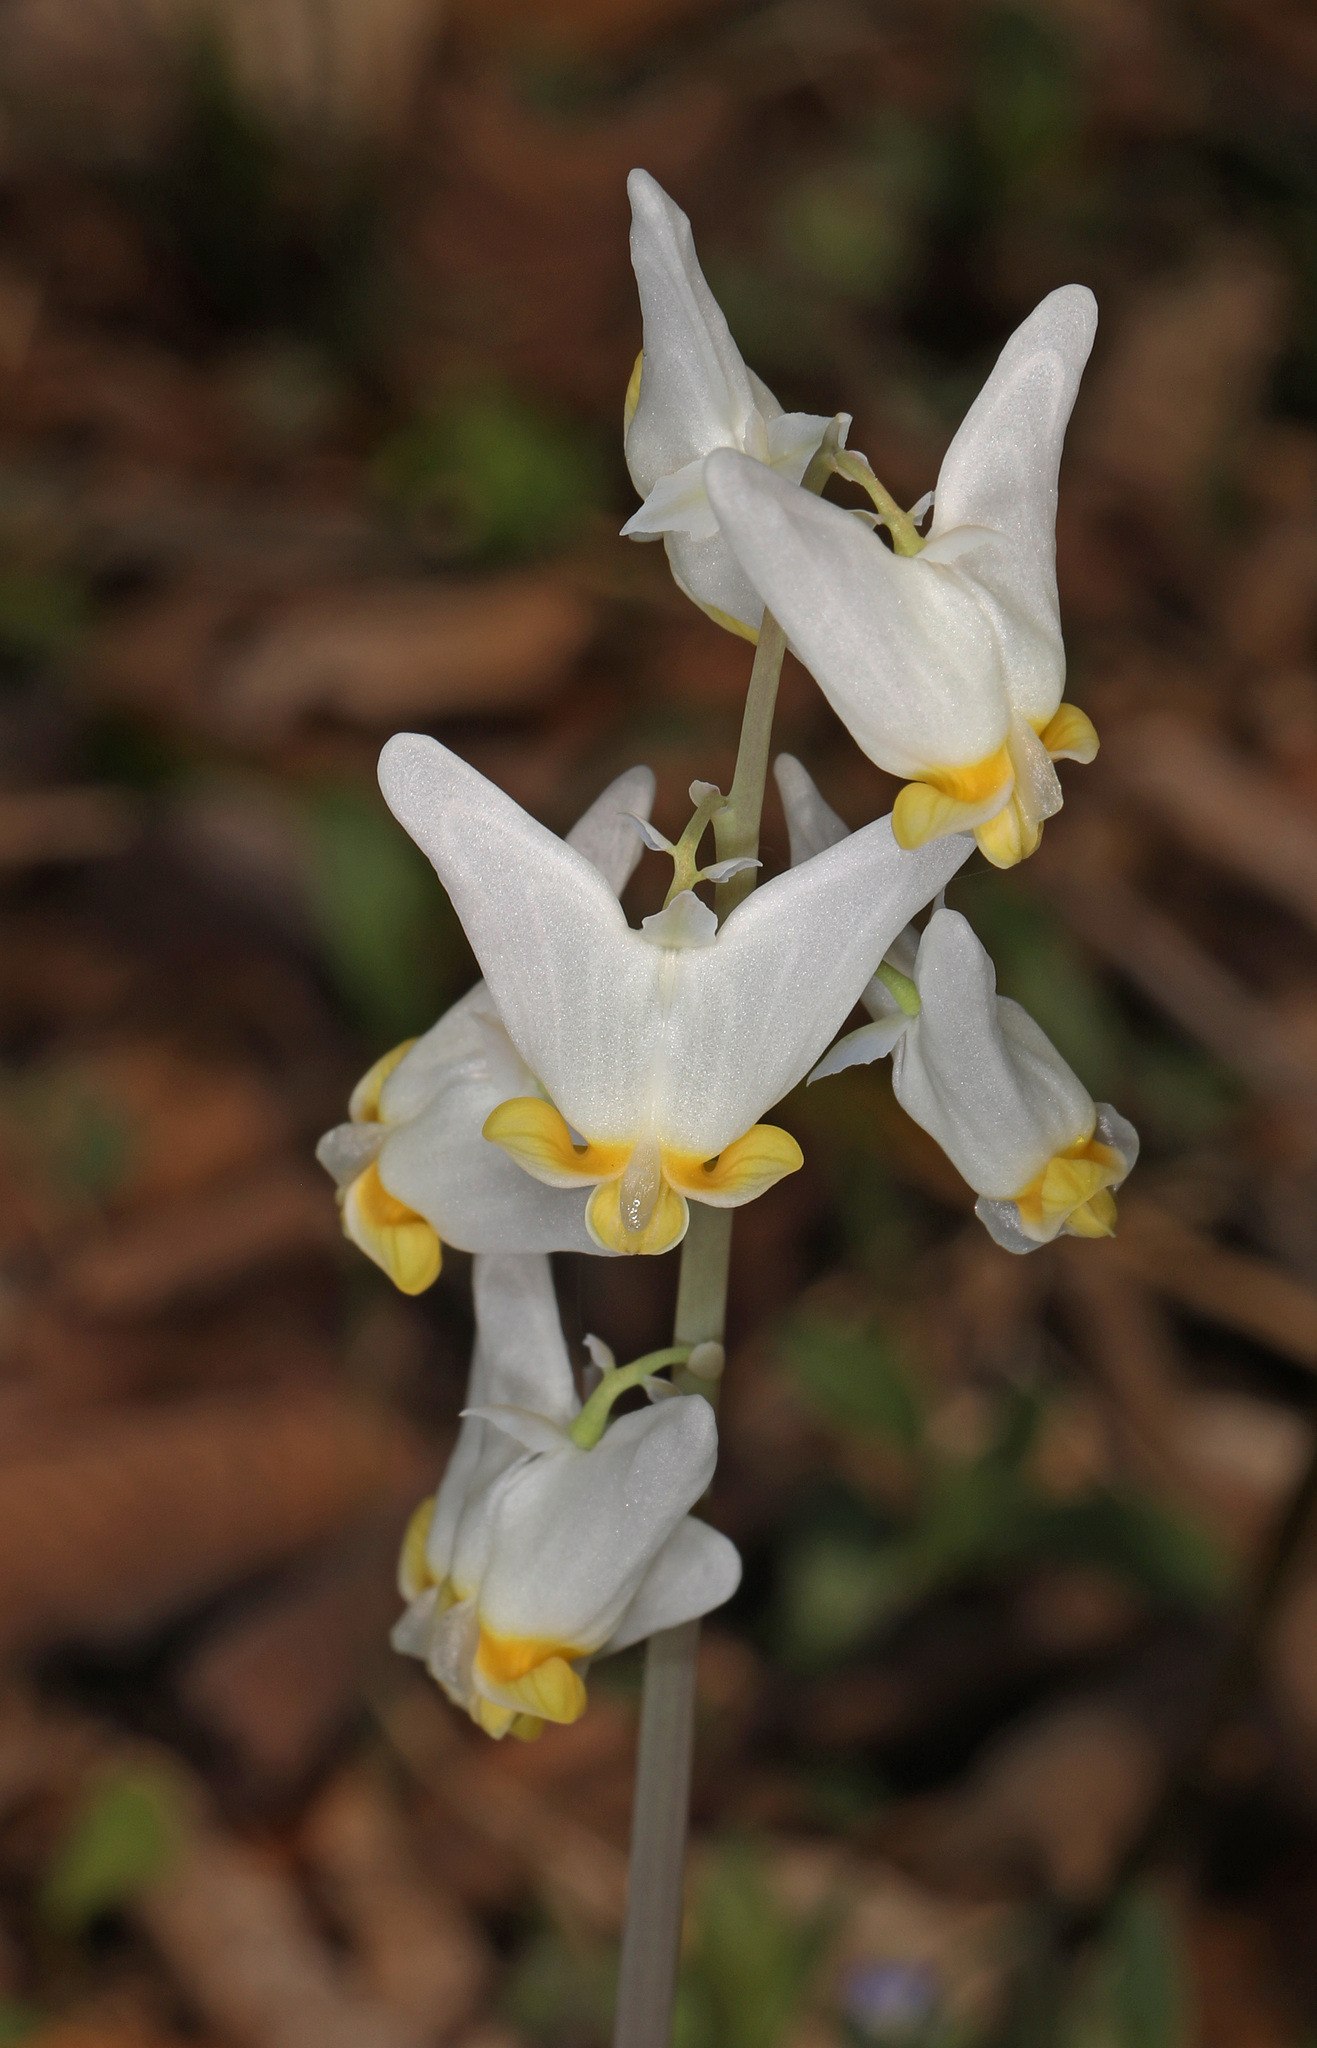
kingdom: Plantae
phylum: Tracheophyta
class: Magnoliopsida
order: Ranunculales
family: Papaveraceae
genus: Dicentra
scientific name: Dicentra cucullaria
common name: Dutchman's breeches
